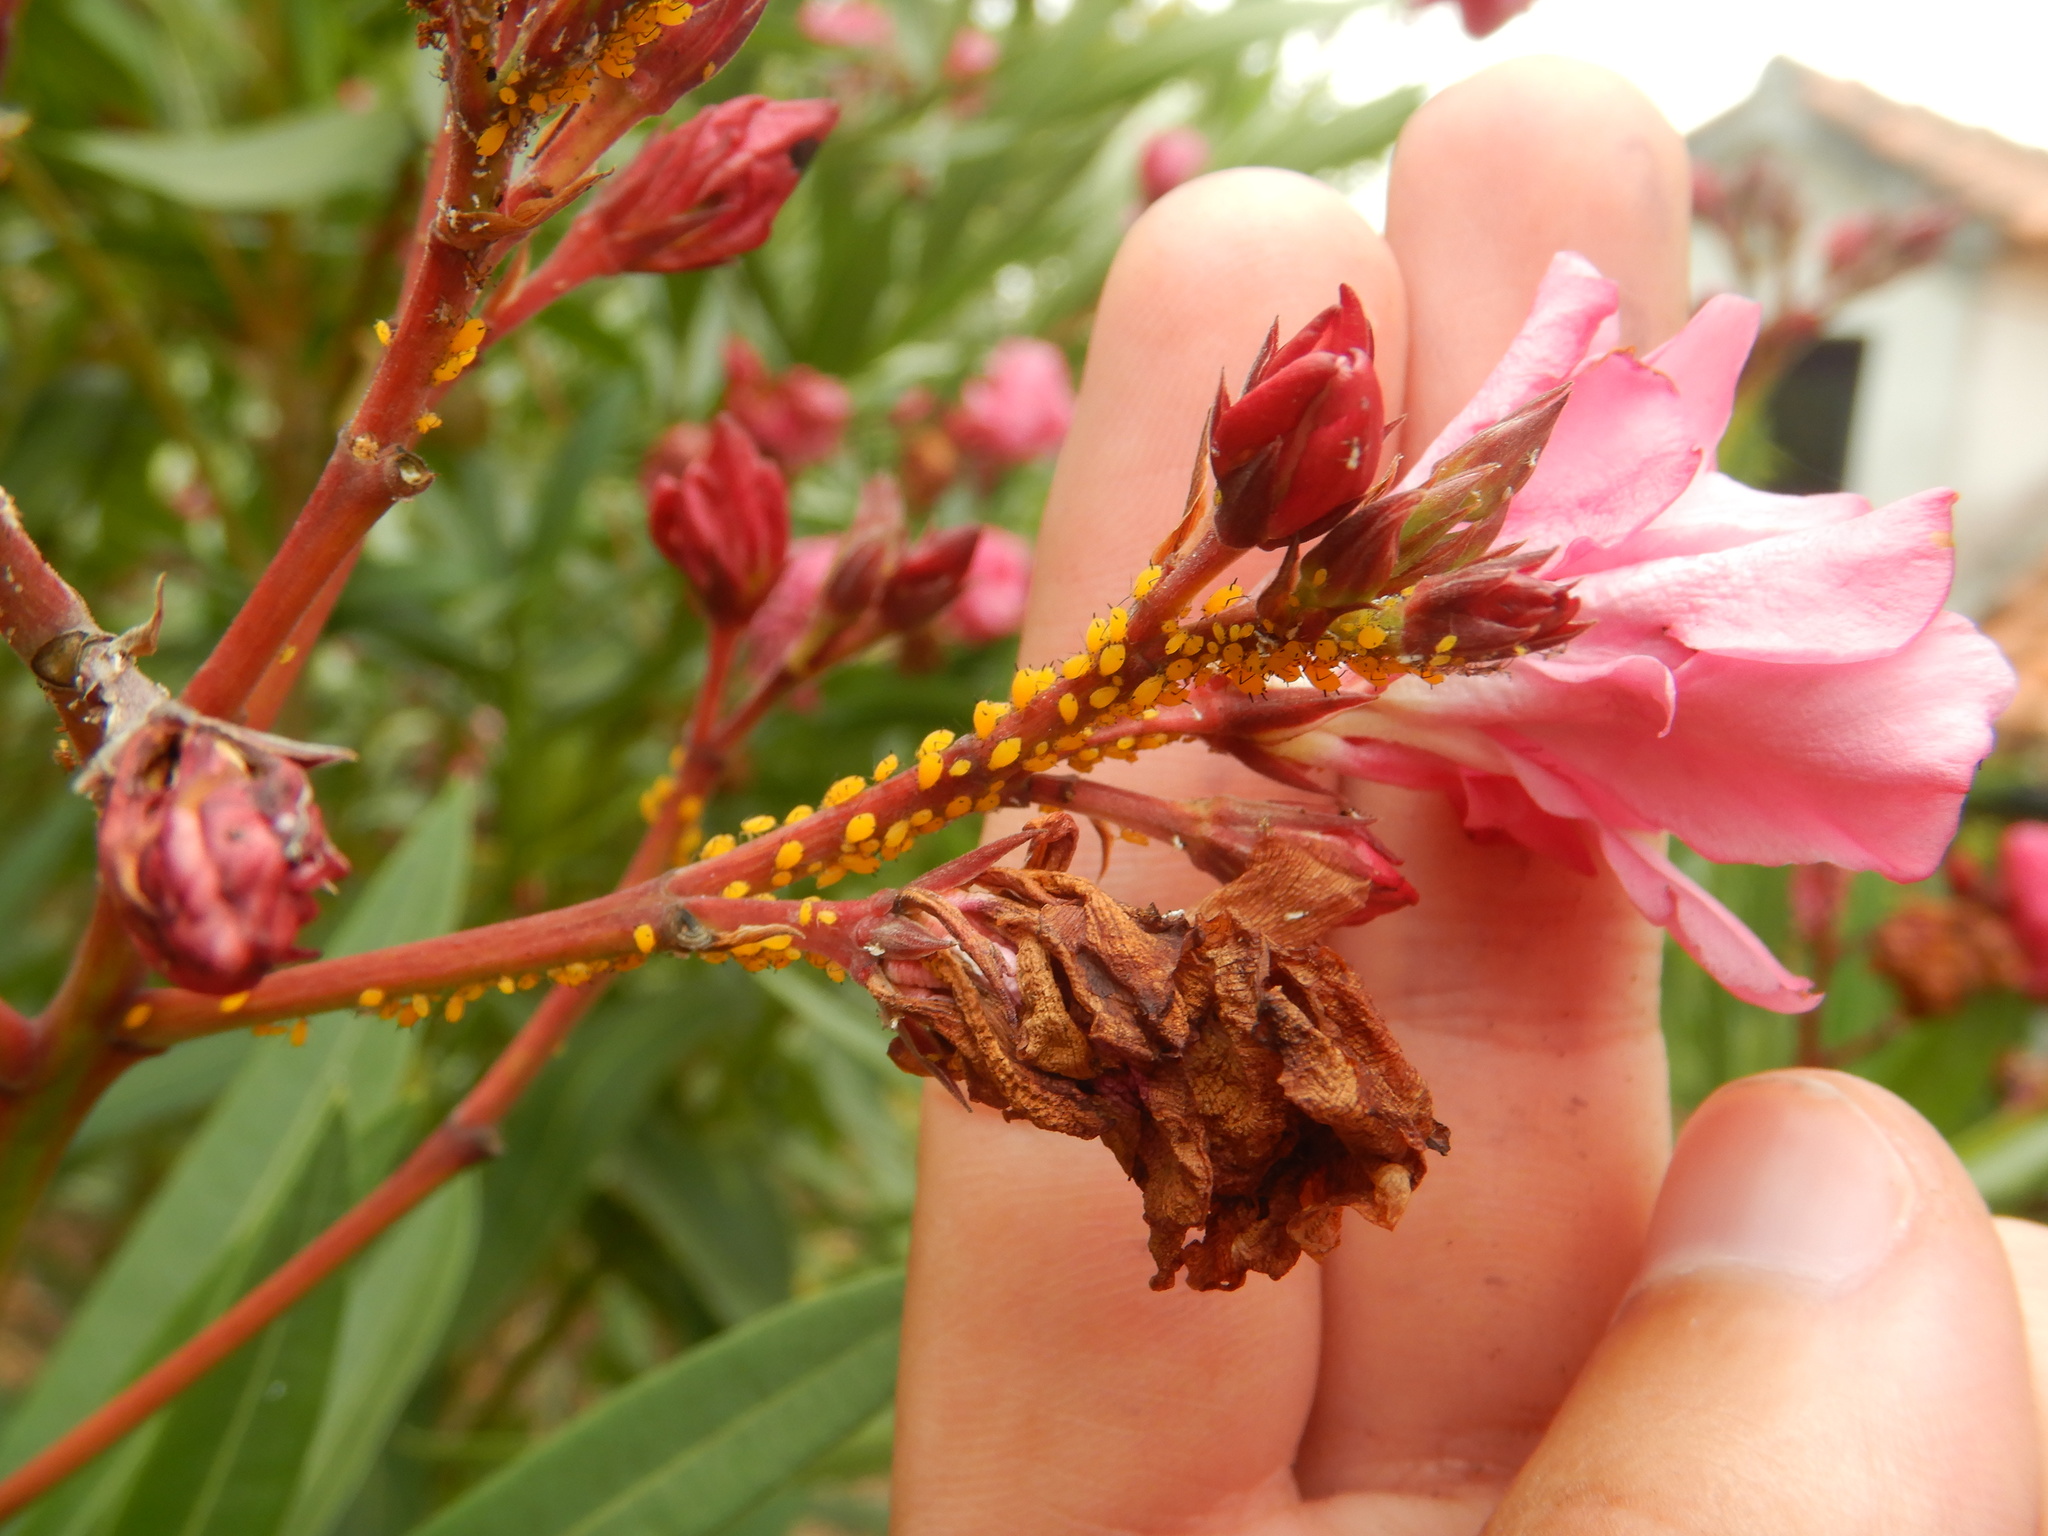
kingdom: Animalia
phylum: Arthropoda
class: Insecta
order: Hemiptera
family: Aphididae
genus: Aphis
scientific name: Aphis nerii
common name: Oleander aphid
